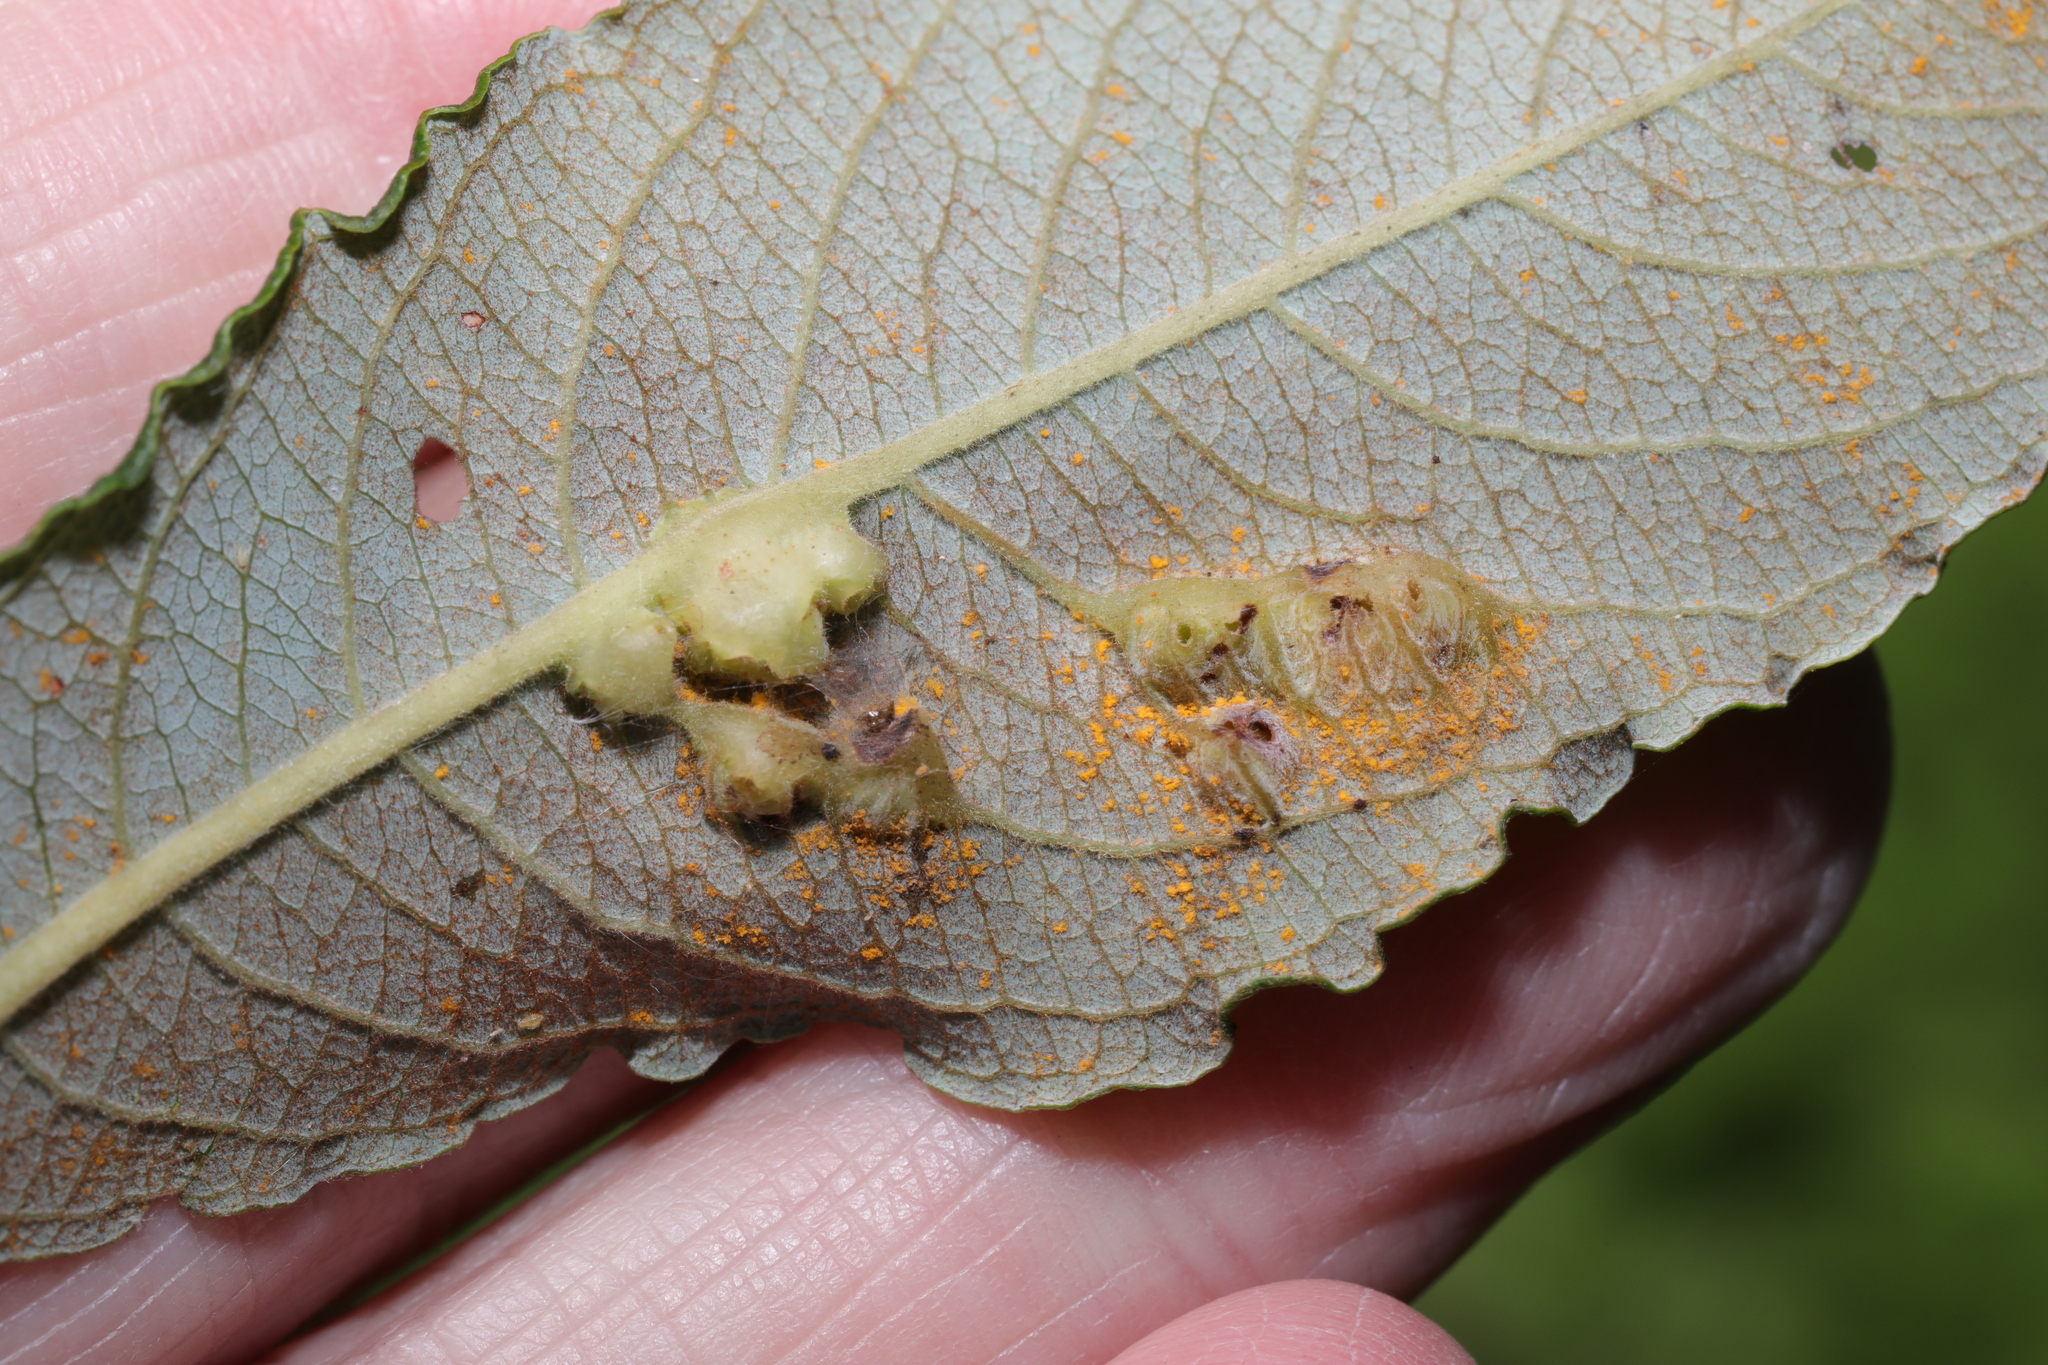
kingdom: Animalia
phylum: Arthropoda
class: Insecta
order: Diptera
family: Cecidomyiidae
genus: Iteomyia
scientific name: Iteomyia major
